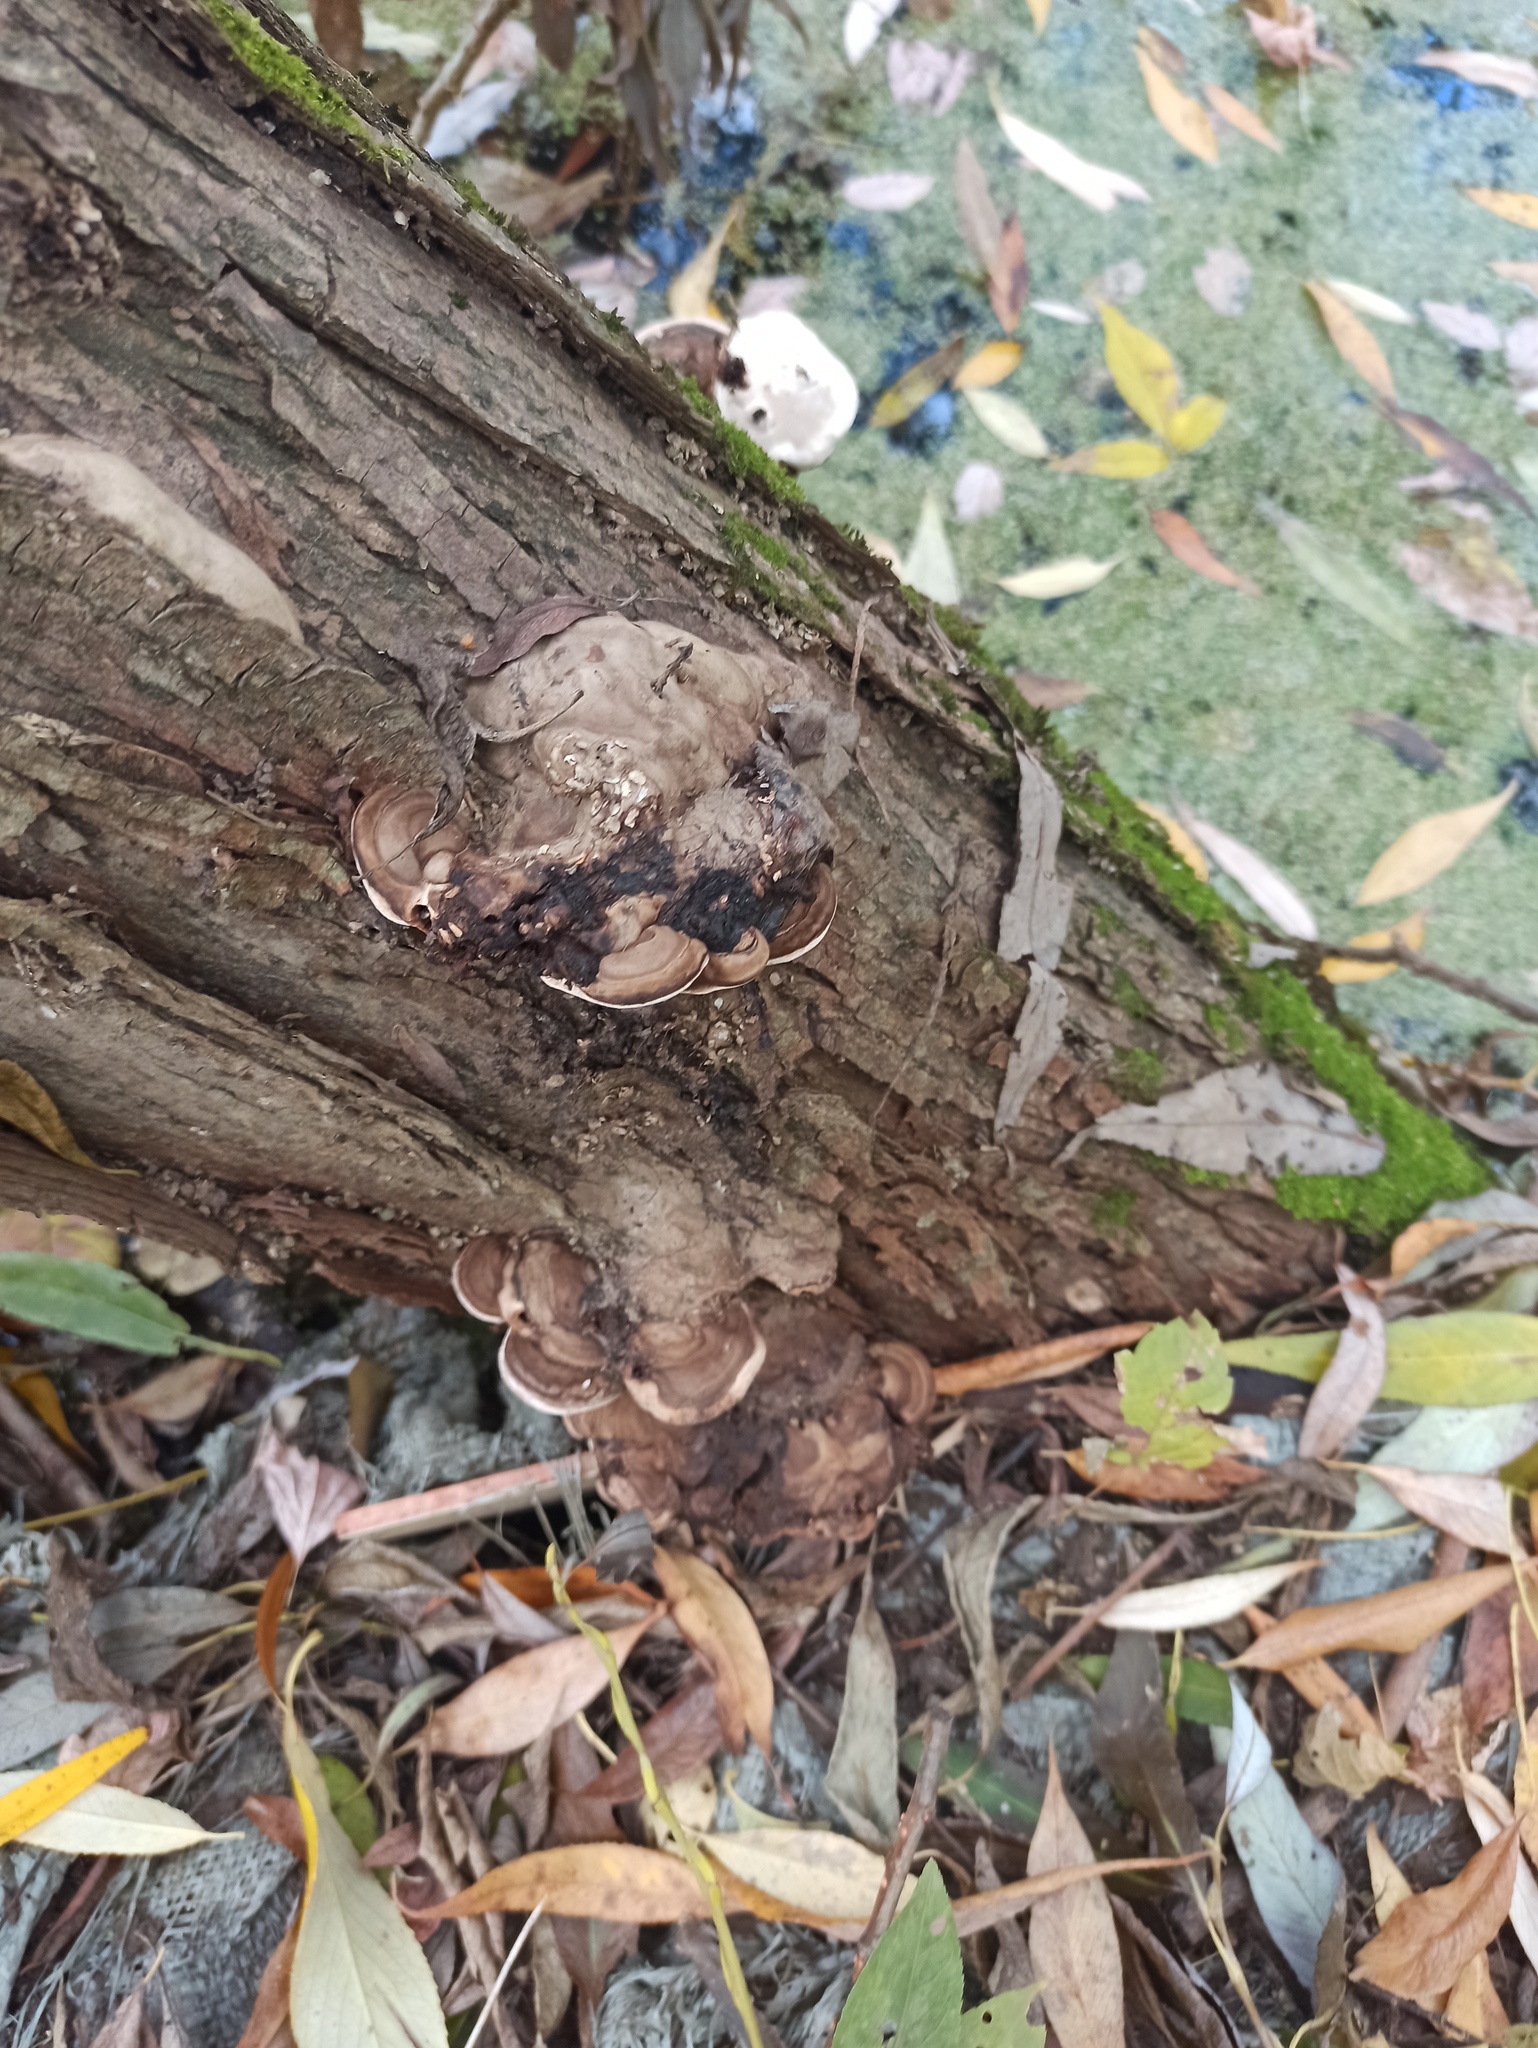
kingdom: Fungi
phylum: Basidiomycota
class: Agaricomycetes
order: Polyporales
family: Polyporaceae
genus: Ganoderma
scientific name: Ganoderma applanatum
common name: Artist's bracket
